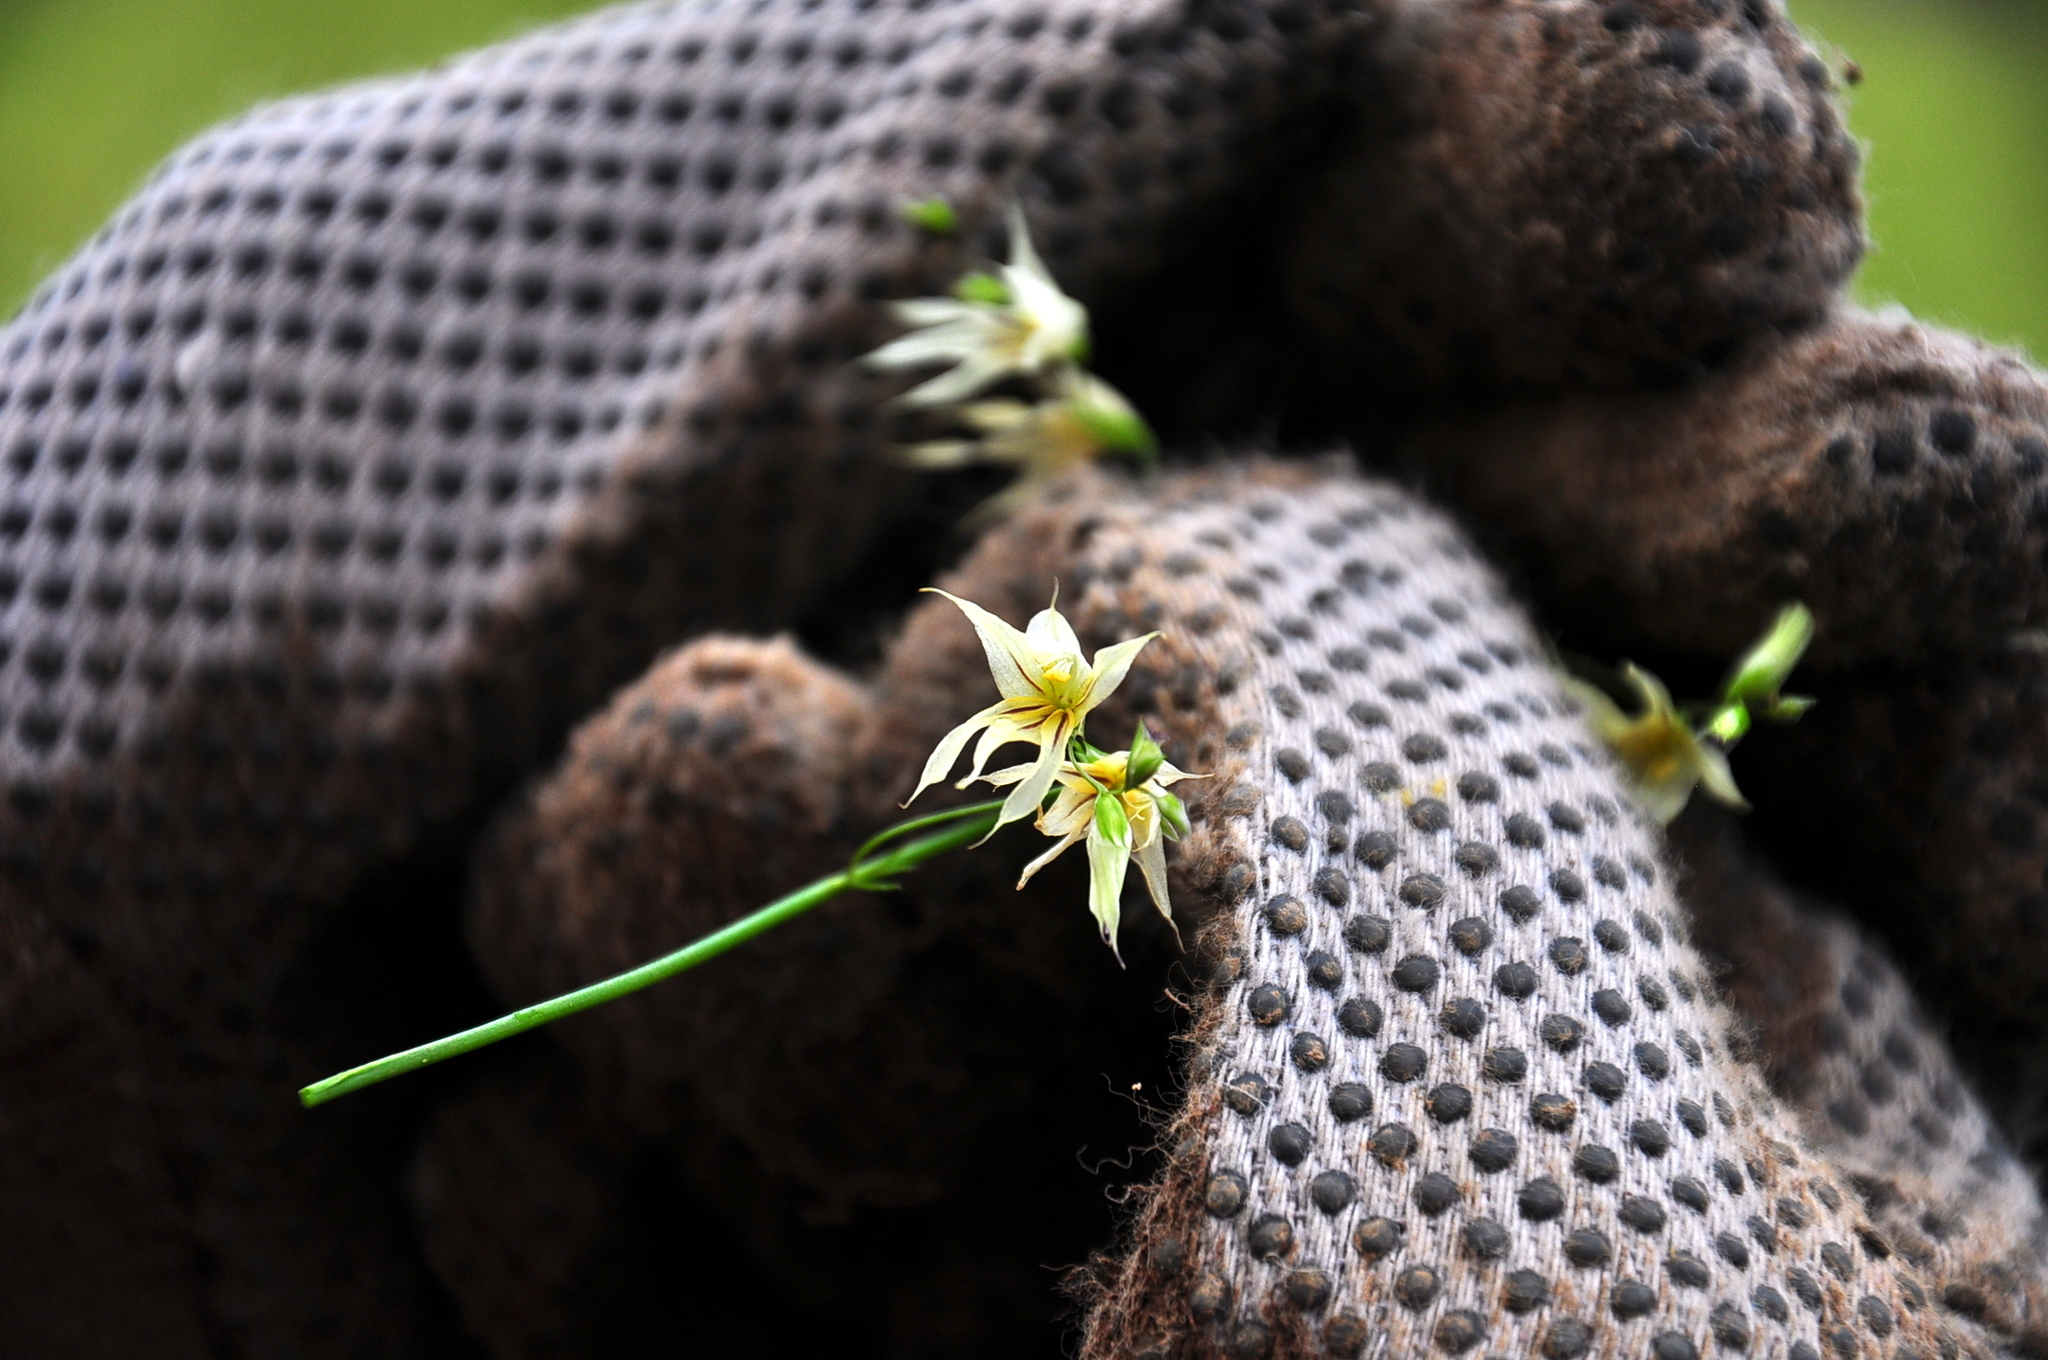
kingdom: Plantae
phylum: Tracheophyta
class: Liliopsida
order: Asparagales
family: Iridaceae
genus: Melasphaerula
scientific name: Melasphaerula graminea
